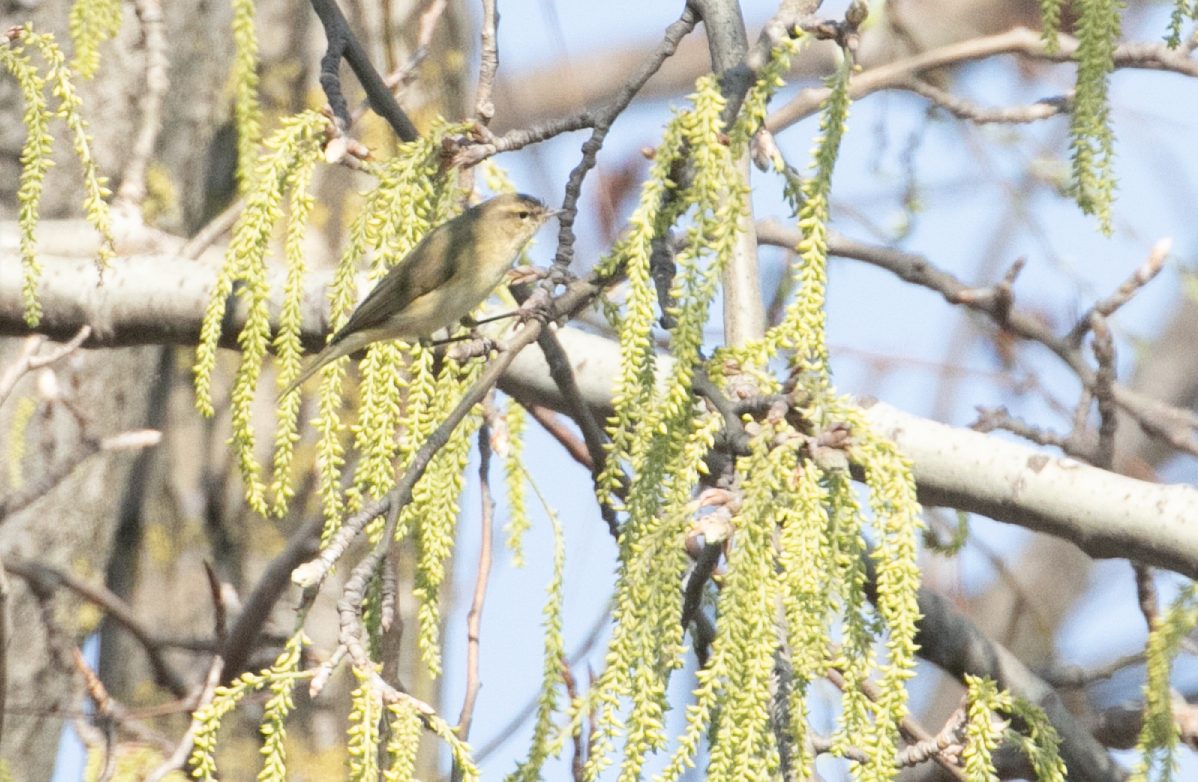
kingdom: Animalia
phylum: Chordata
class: Aves
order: Passeriformes
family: Phylloscopidae
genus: Phylloscopus
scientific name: Phylloscopus collybita
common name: Common chiffchaff
